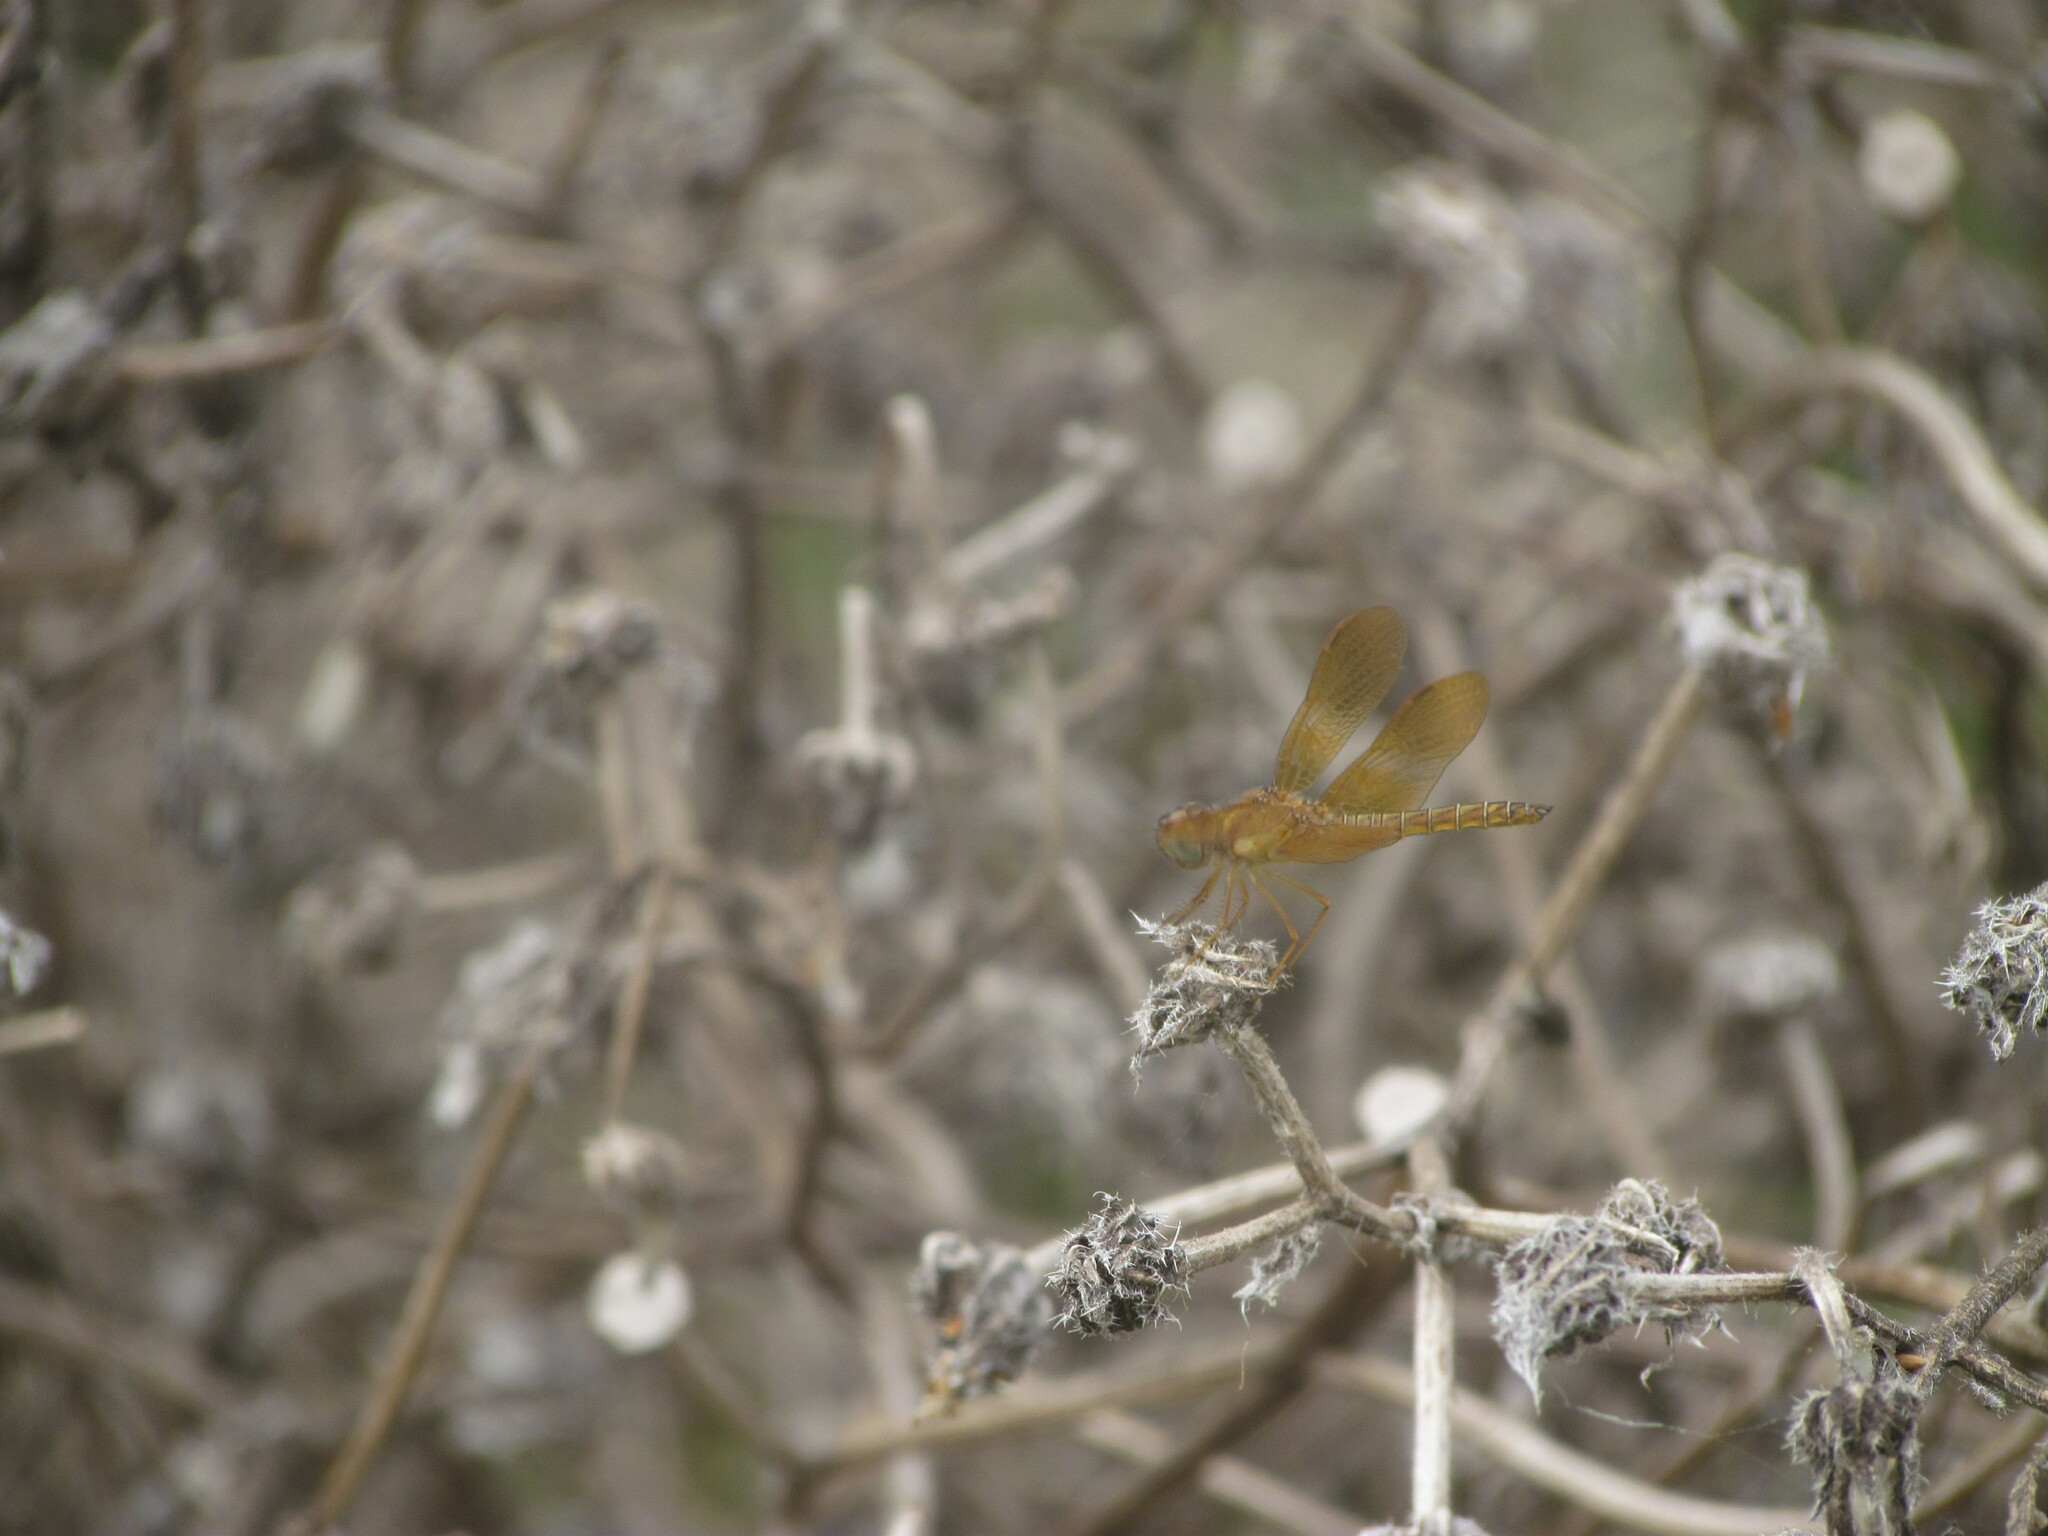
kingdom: Animalia
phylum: Arthropoda
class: Insecta
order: Odonata
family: Libellulidae
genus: Perithemis
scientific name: Perithemis tenera
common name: Eastern amberwing
